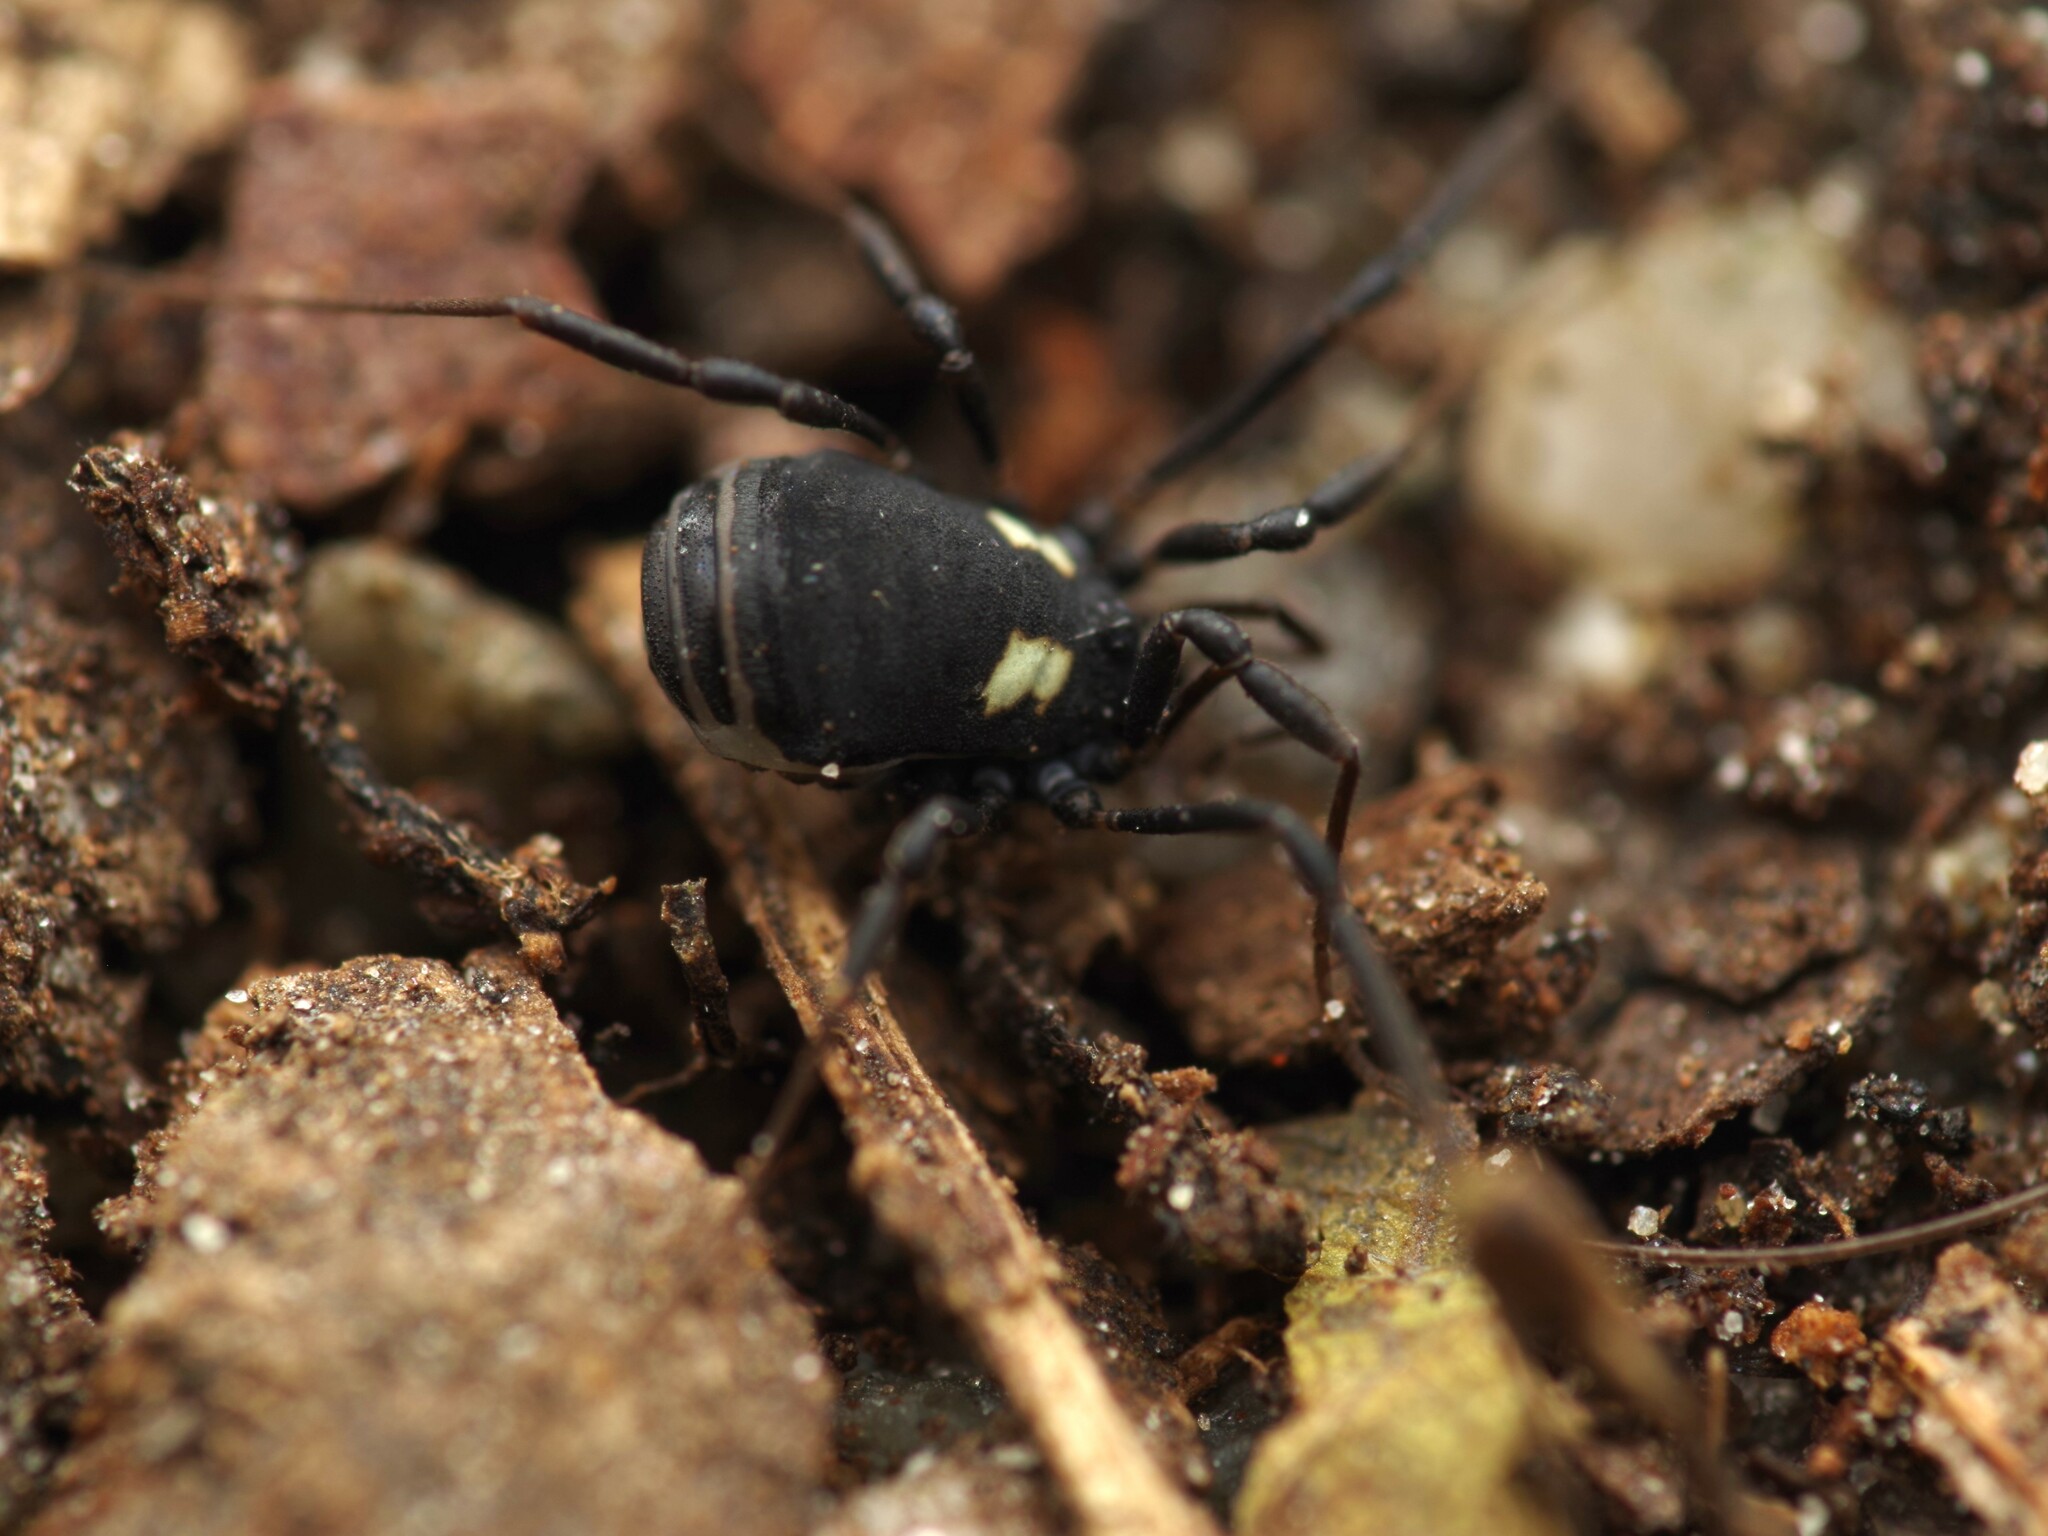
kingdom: Animalia
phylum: Arthropoda
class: Arachnida
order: Opiliones
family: Nemastomatidae
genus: Nemastoma
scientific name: Nemastoma bimaculatum
